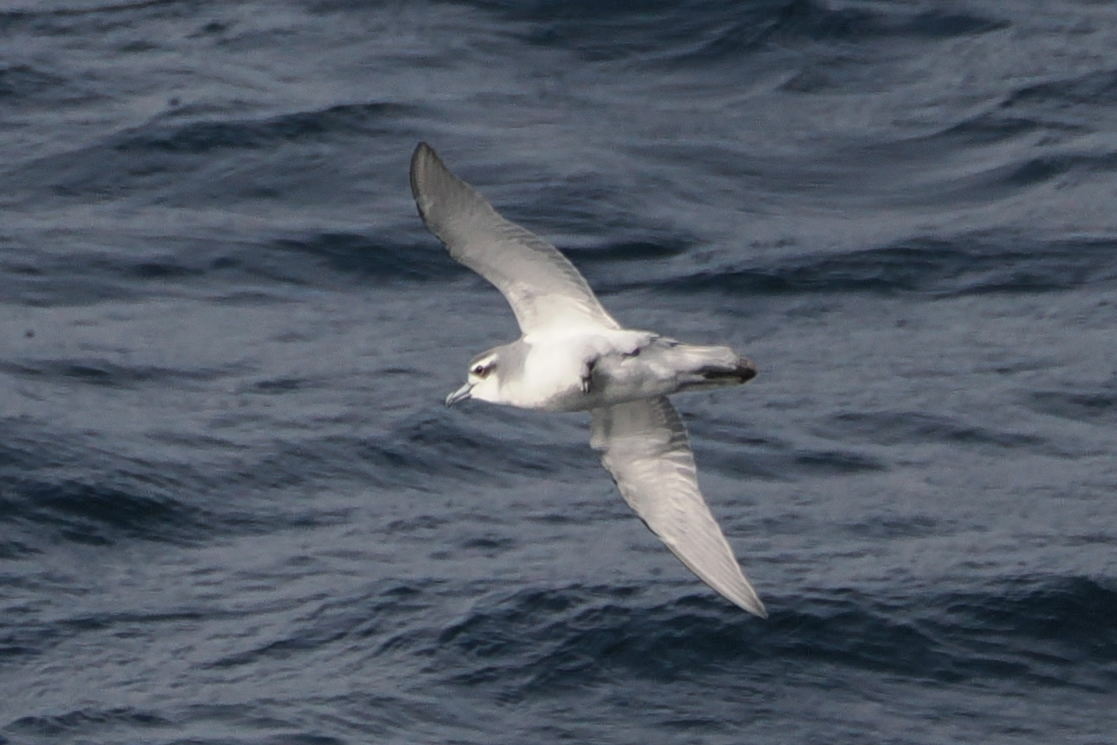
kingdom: Animalia
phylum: Chordata
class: Aves
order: Procellariiformes
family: Procellariidae
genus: Pachyptila
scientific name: Pachyptila desolata
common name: Antarctic prion
